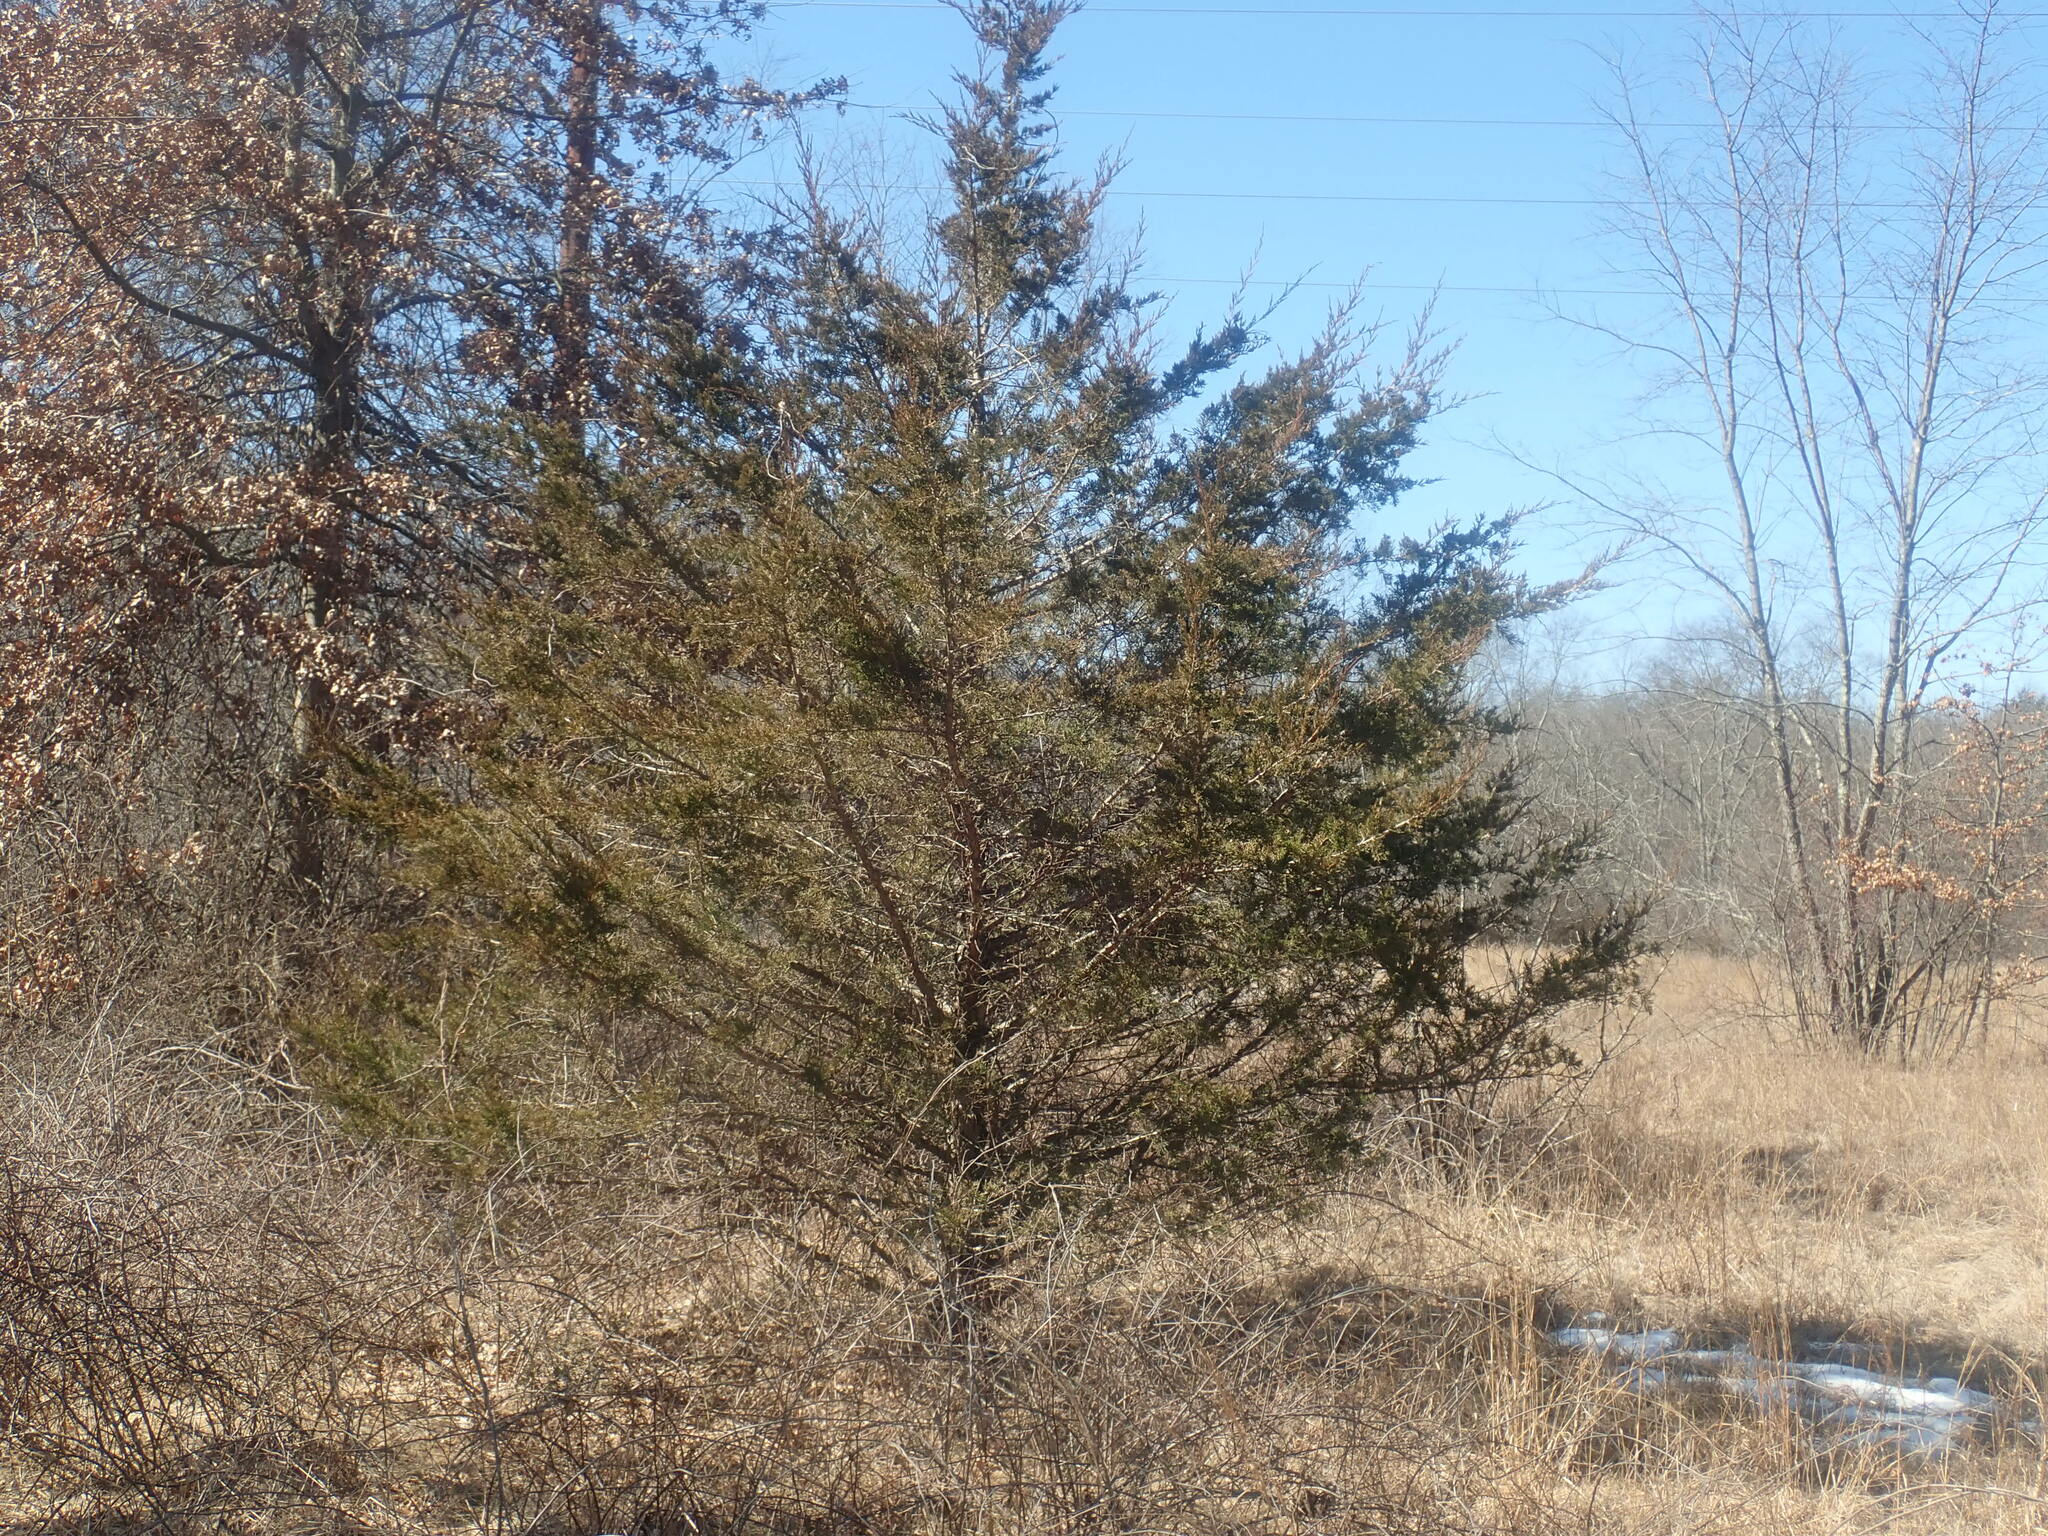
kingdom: Plantae
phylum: Tracheophyta
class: Pinopsida
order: Pinales
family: Cupressaceae
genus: Juniperus
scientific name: Juniperus virginiana
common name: Red juniper
